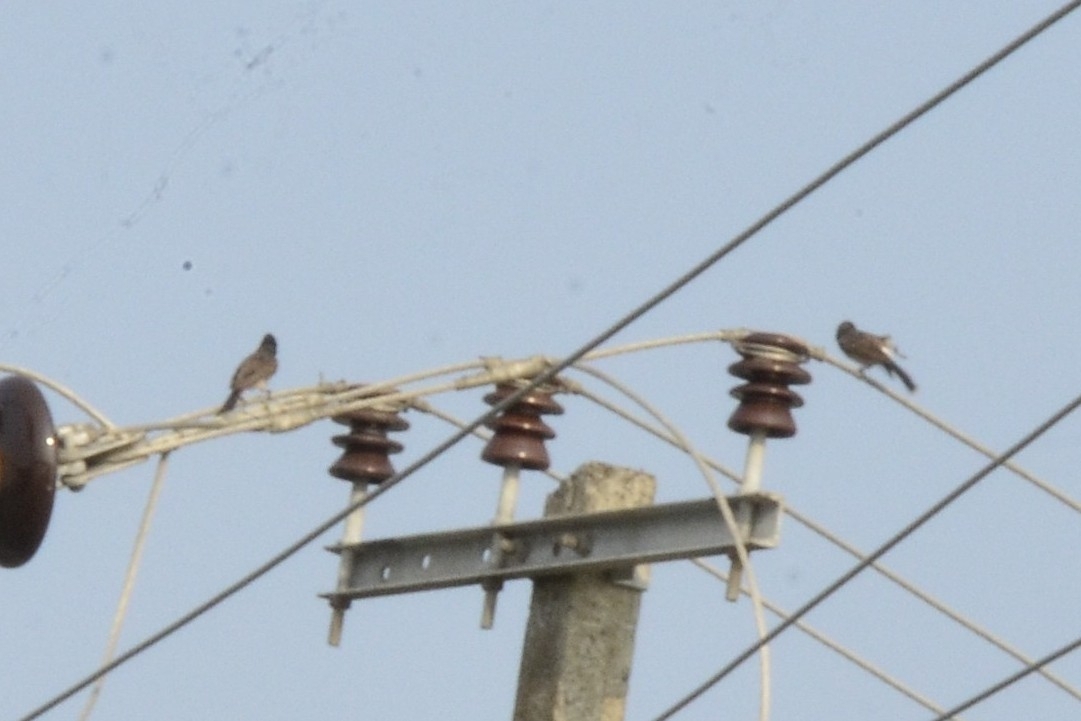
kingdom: Animalia
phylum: Chordata
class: Aves
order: Passeriformes
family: Pycnonotidae
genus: Pycnonotus
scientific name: Pycnonotus cafer
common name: Red-vented bulbul
